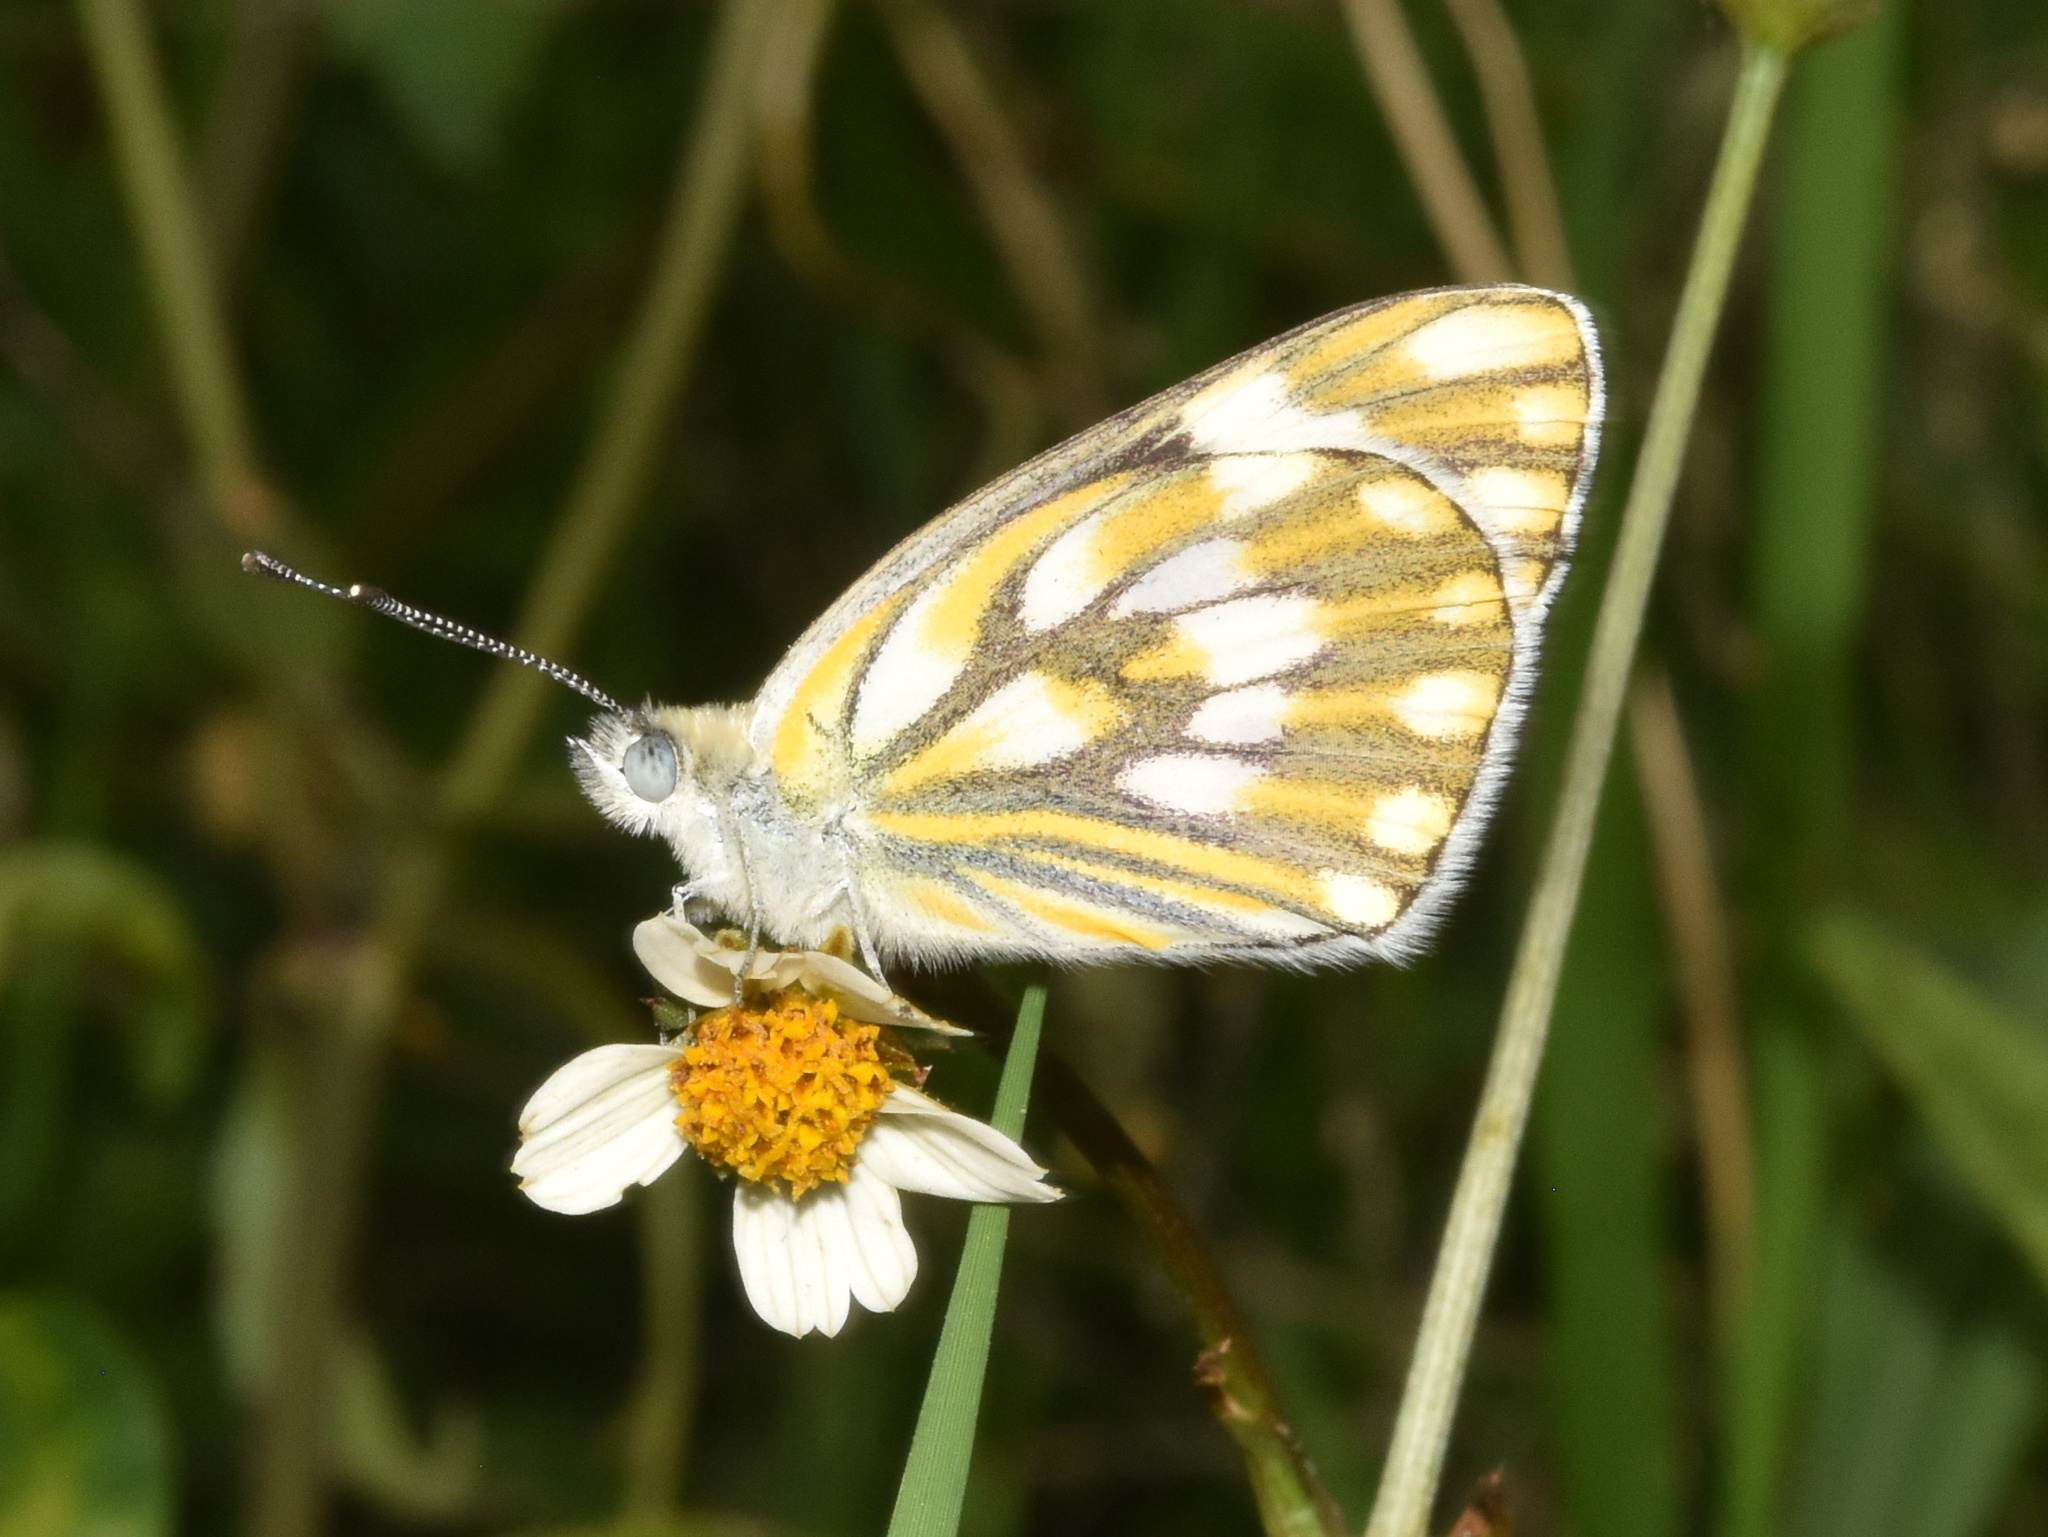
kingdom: Animalia
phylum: Arthropoda
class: Insecta
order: Lepidoptera
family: Pieridae
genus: Pontia
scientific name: Pontia helice
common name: Meadow white
